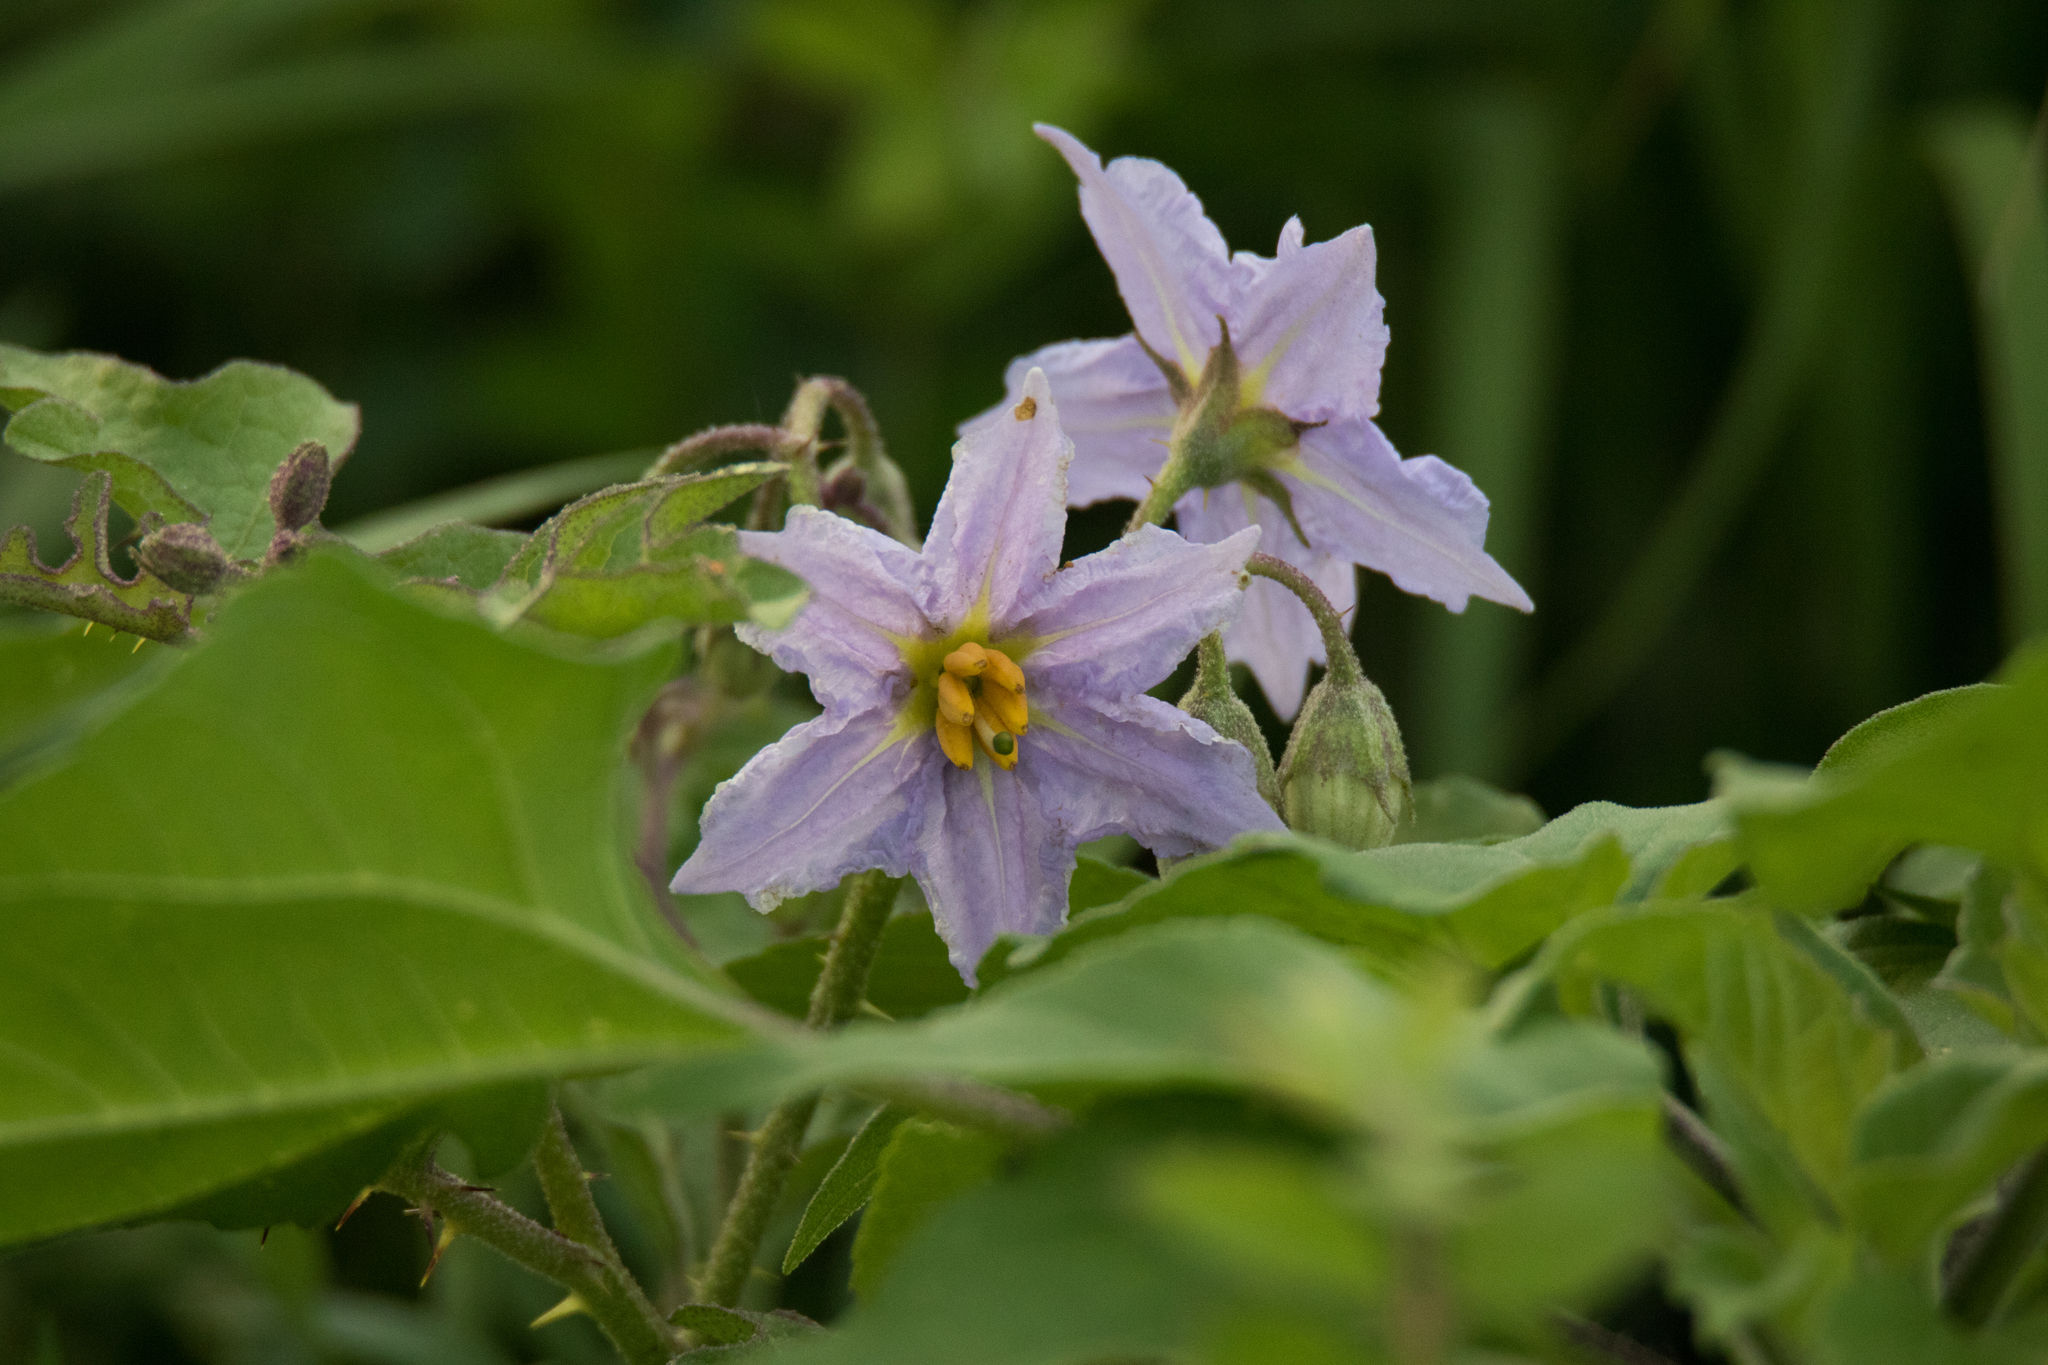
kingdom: Plantae
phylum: Tracheophyta
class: Magnoliopsida
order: Solanales
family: Solanaceae
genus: Solanum
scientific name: Solanum dimidiatum
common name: Carolina horse-nettle
